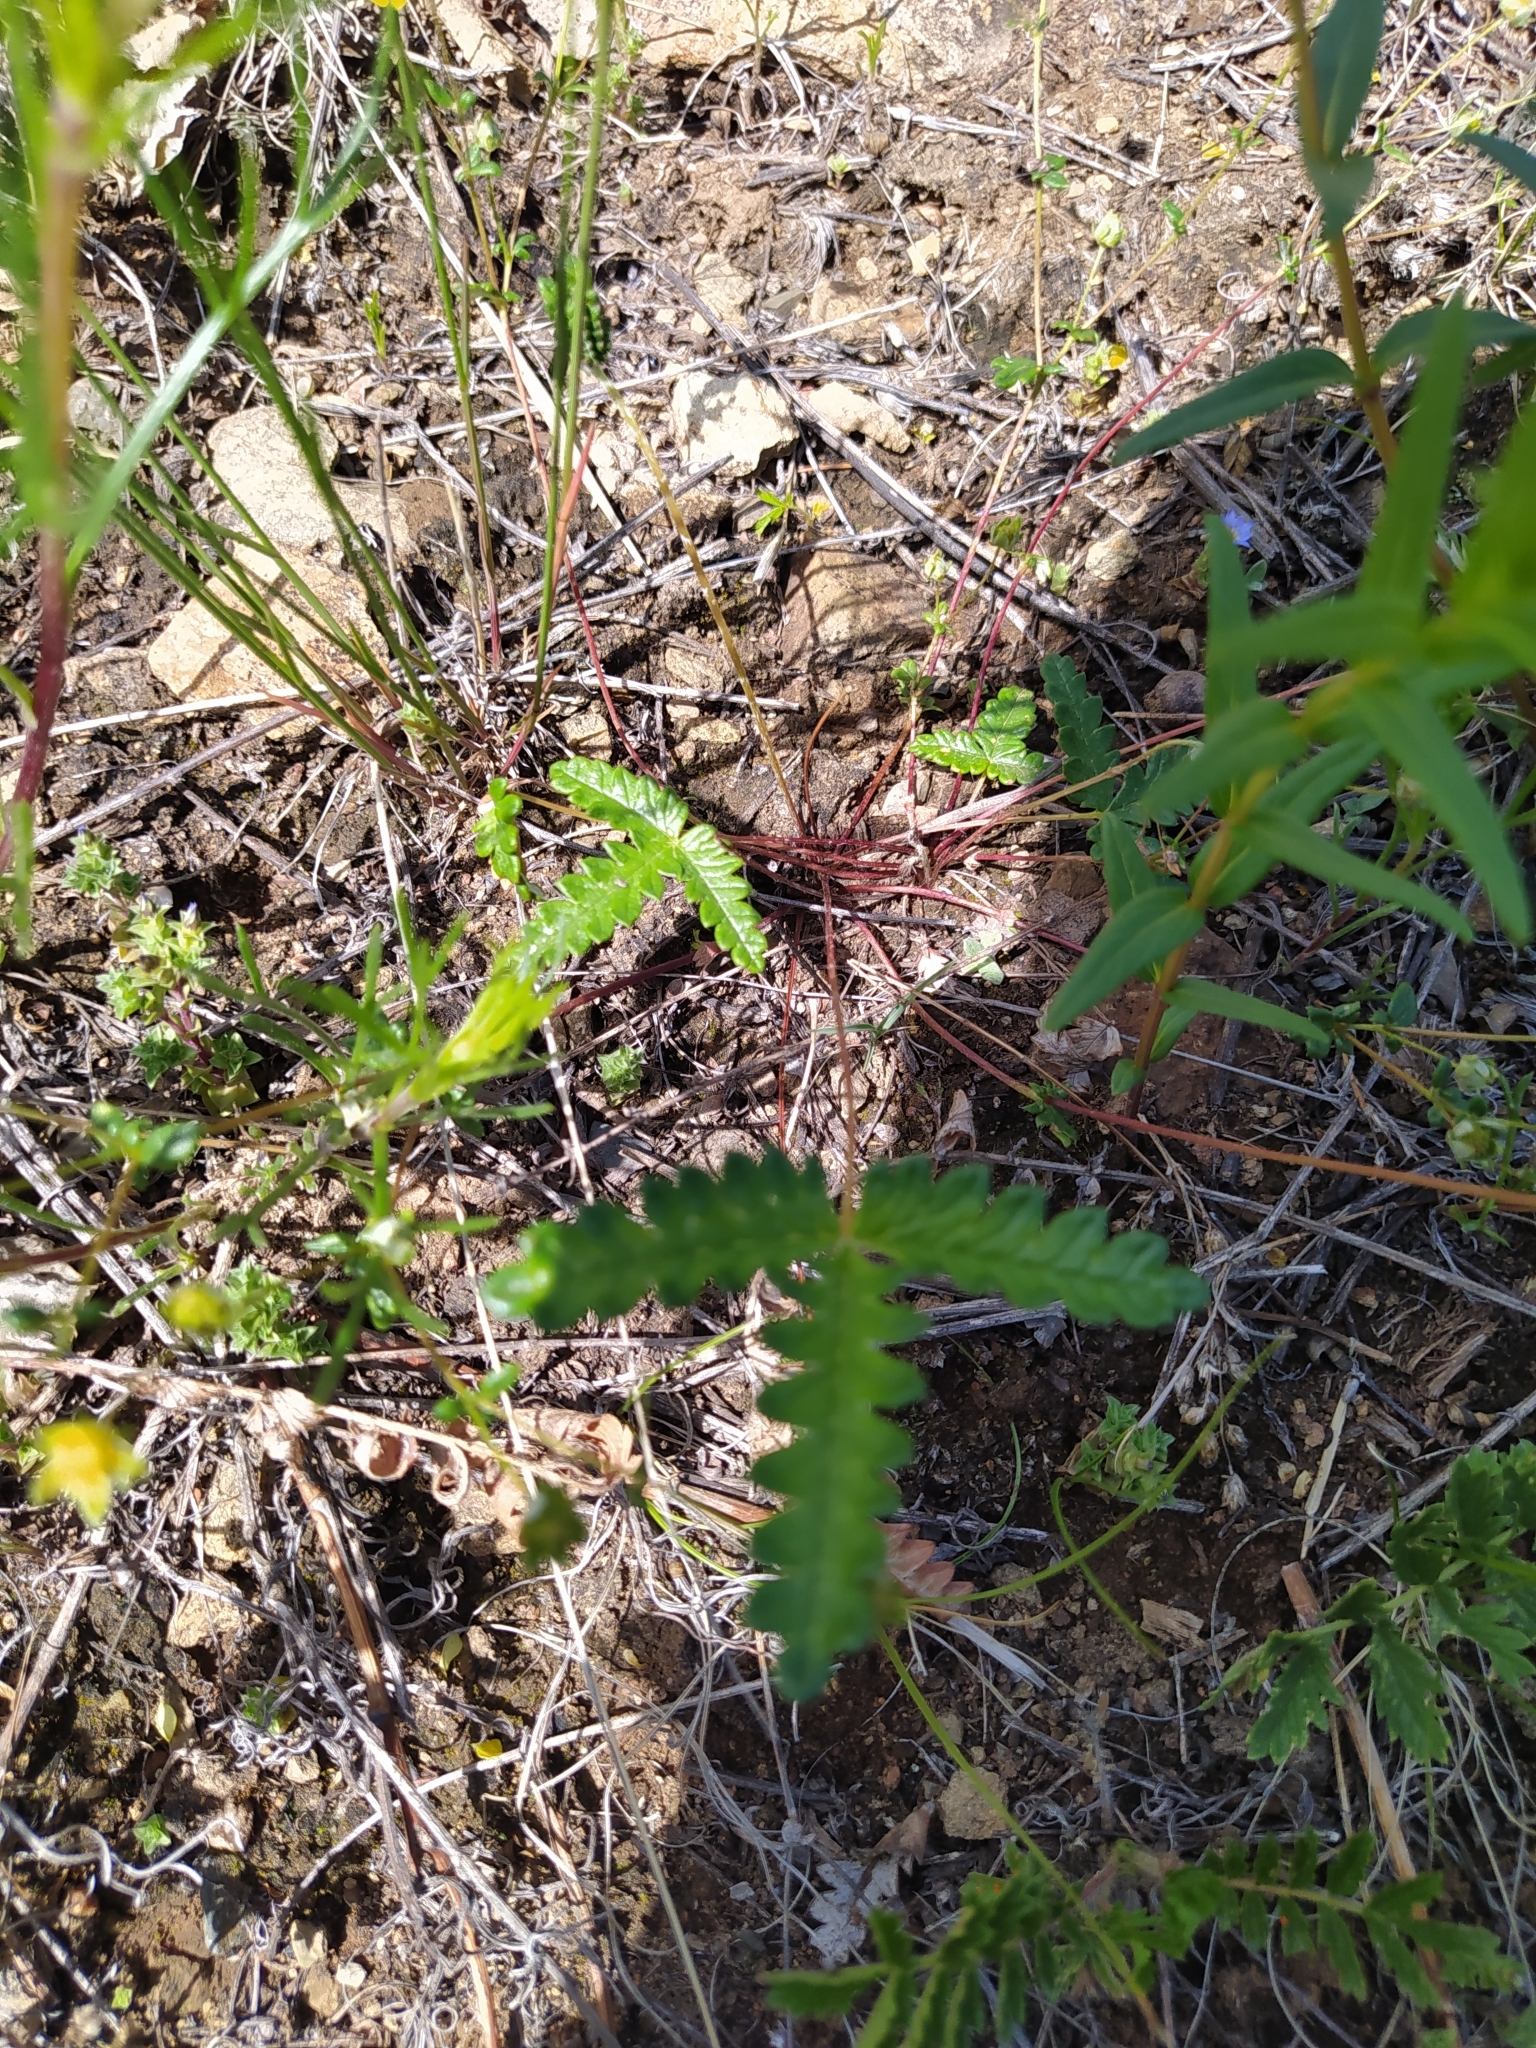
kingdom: Plantae
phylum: Tracheophyta
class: Magnoliopsida
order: Rosales
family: Rosaceae
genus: Potentilla
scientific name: Potentilla
